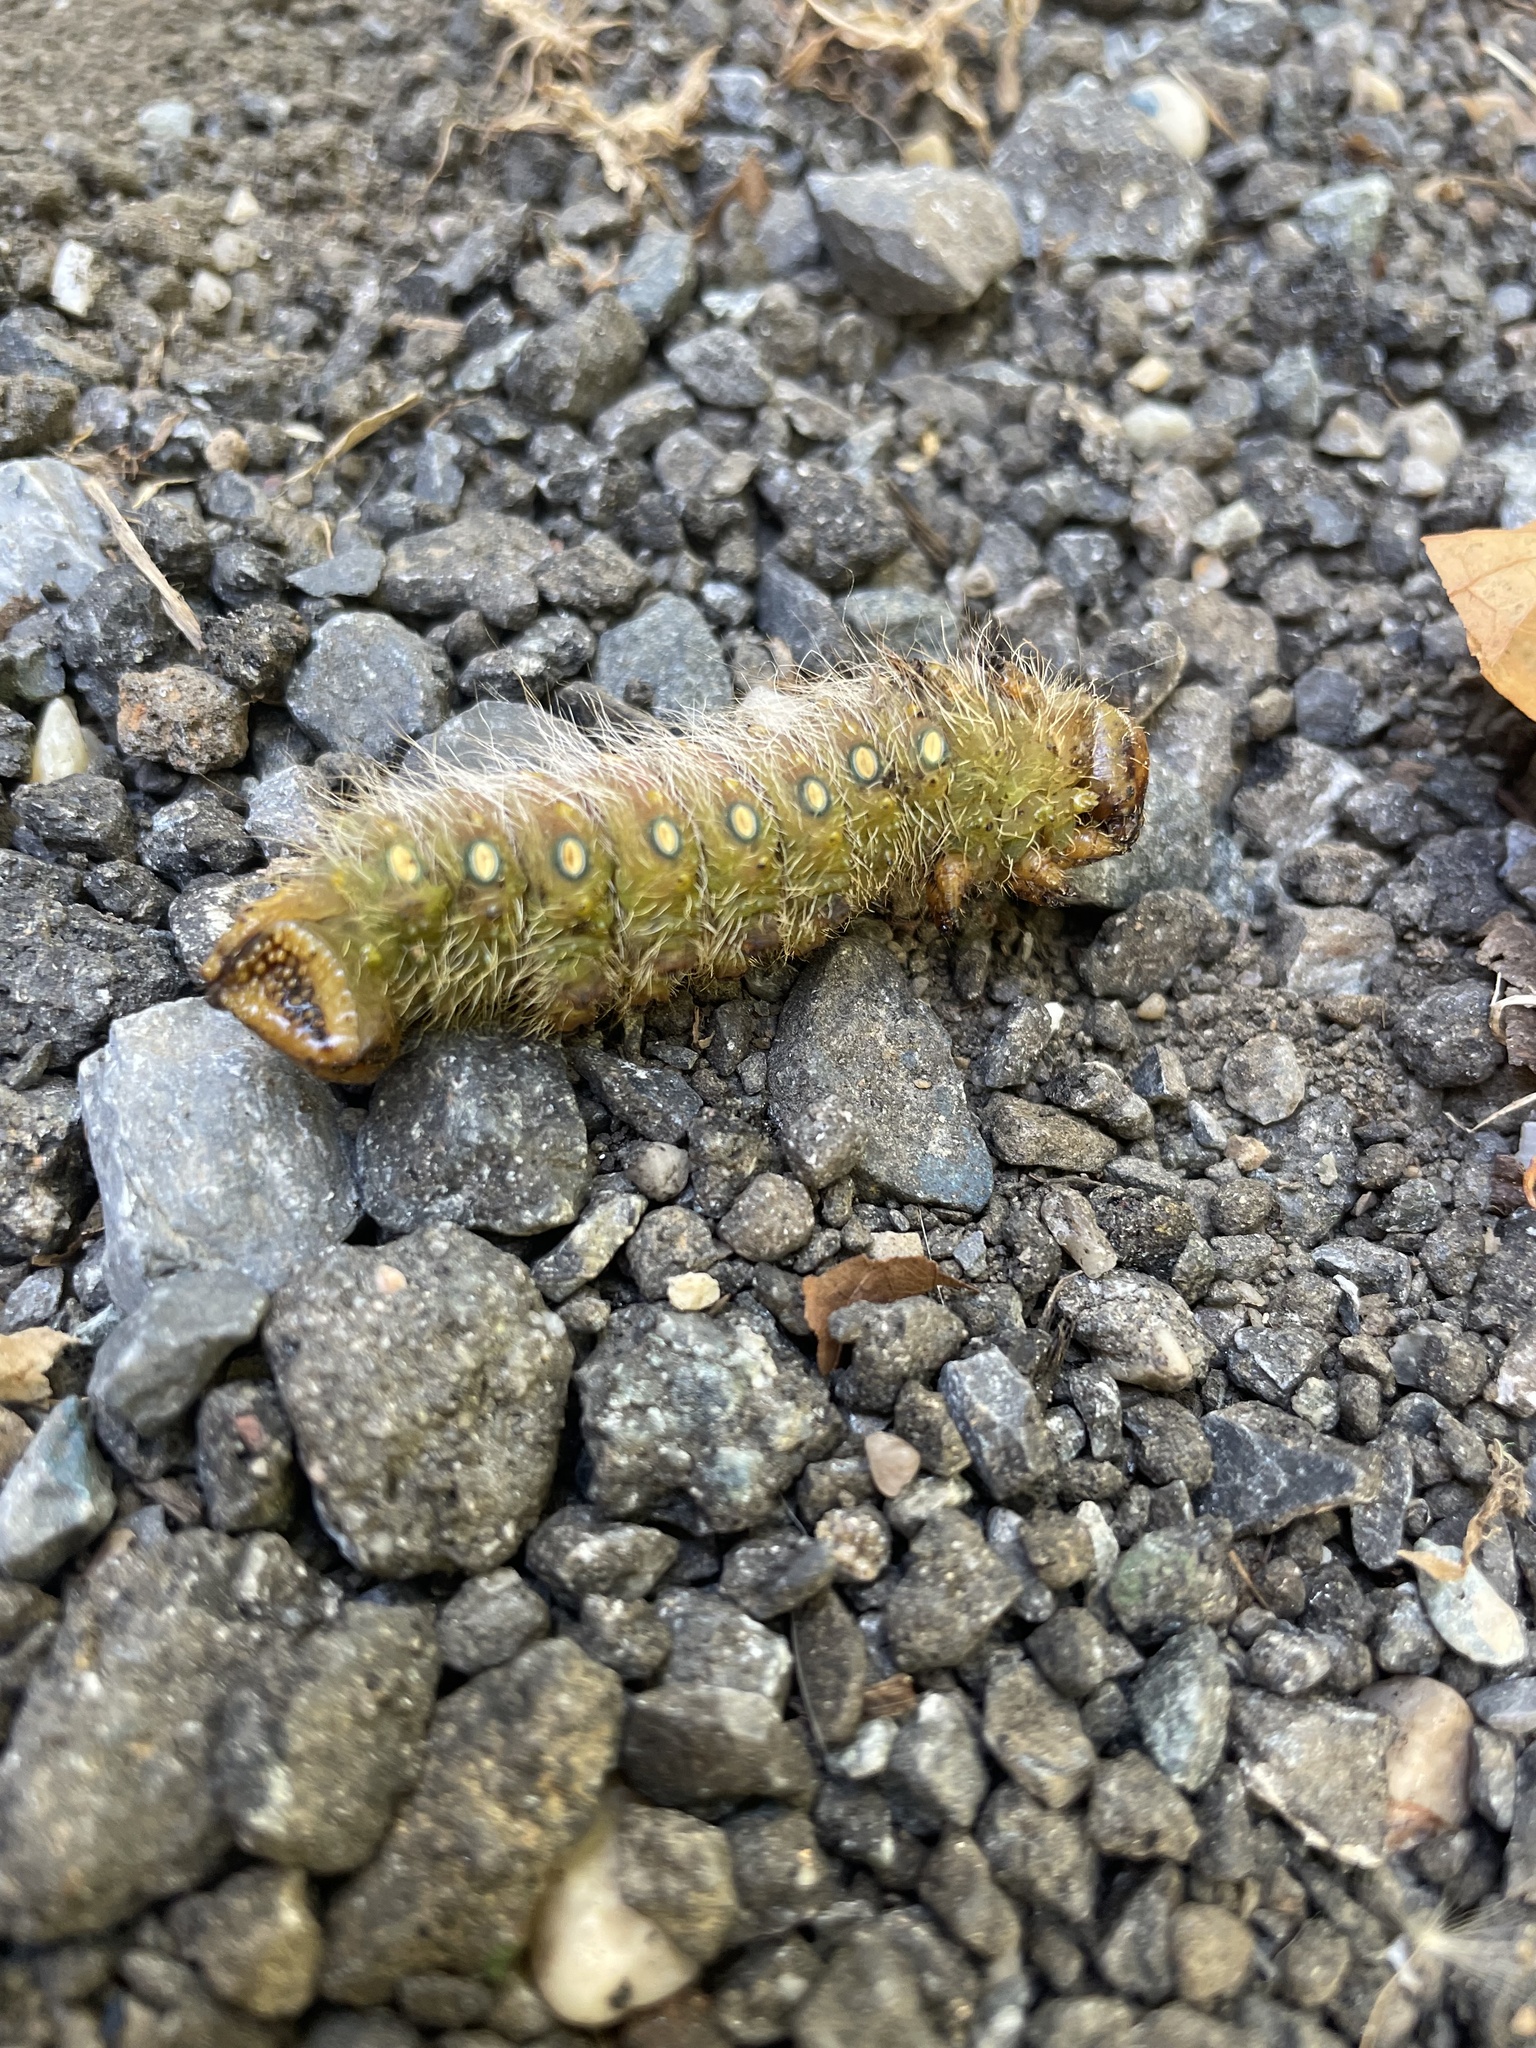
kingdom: Animalia
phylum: Arthropoda
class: Insecta
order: Lepidoptera
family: Saturniidae
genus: Eacles
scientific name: Eacles imperialis
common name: Imperial moth
